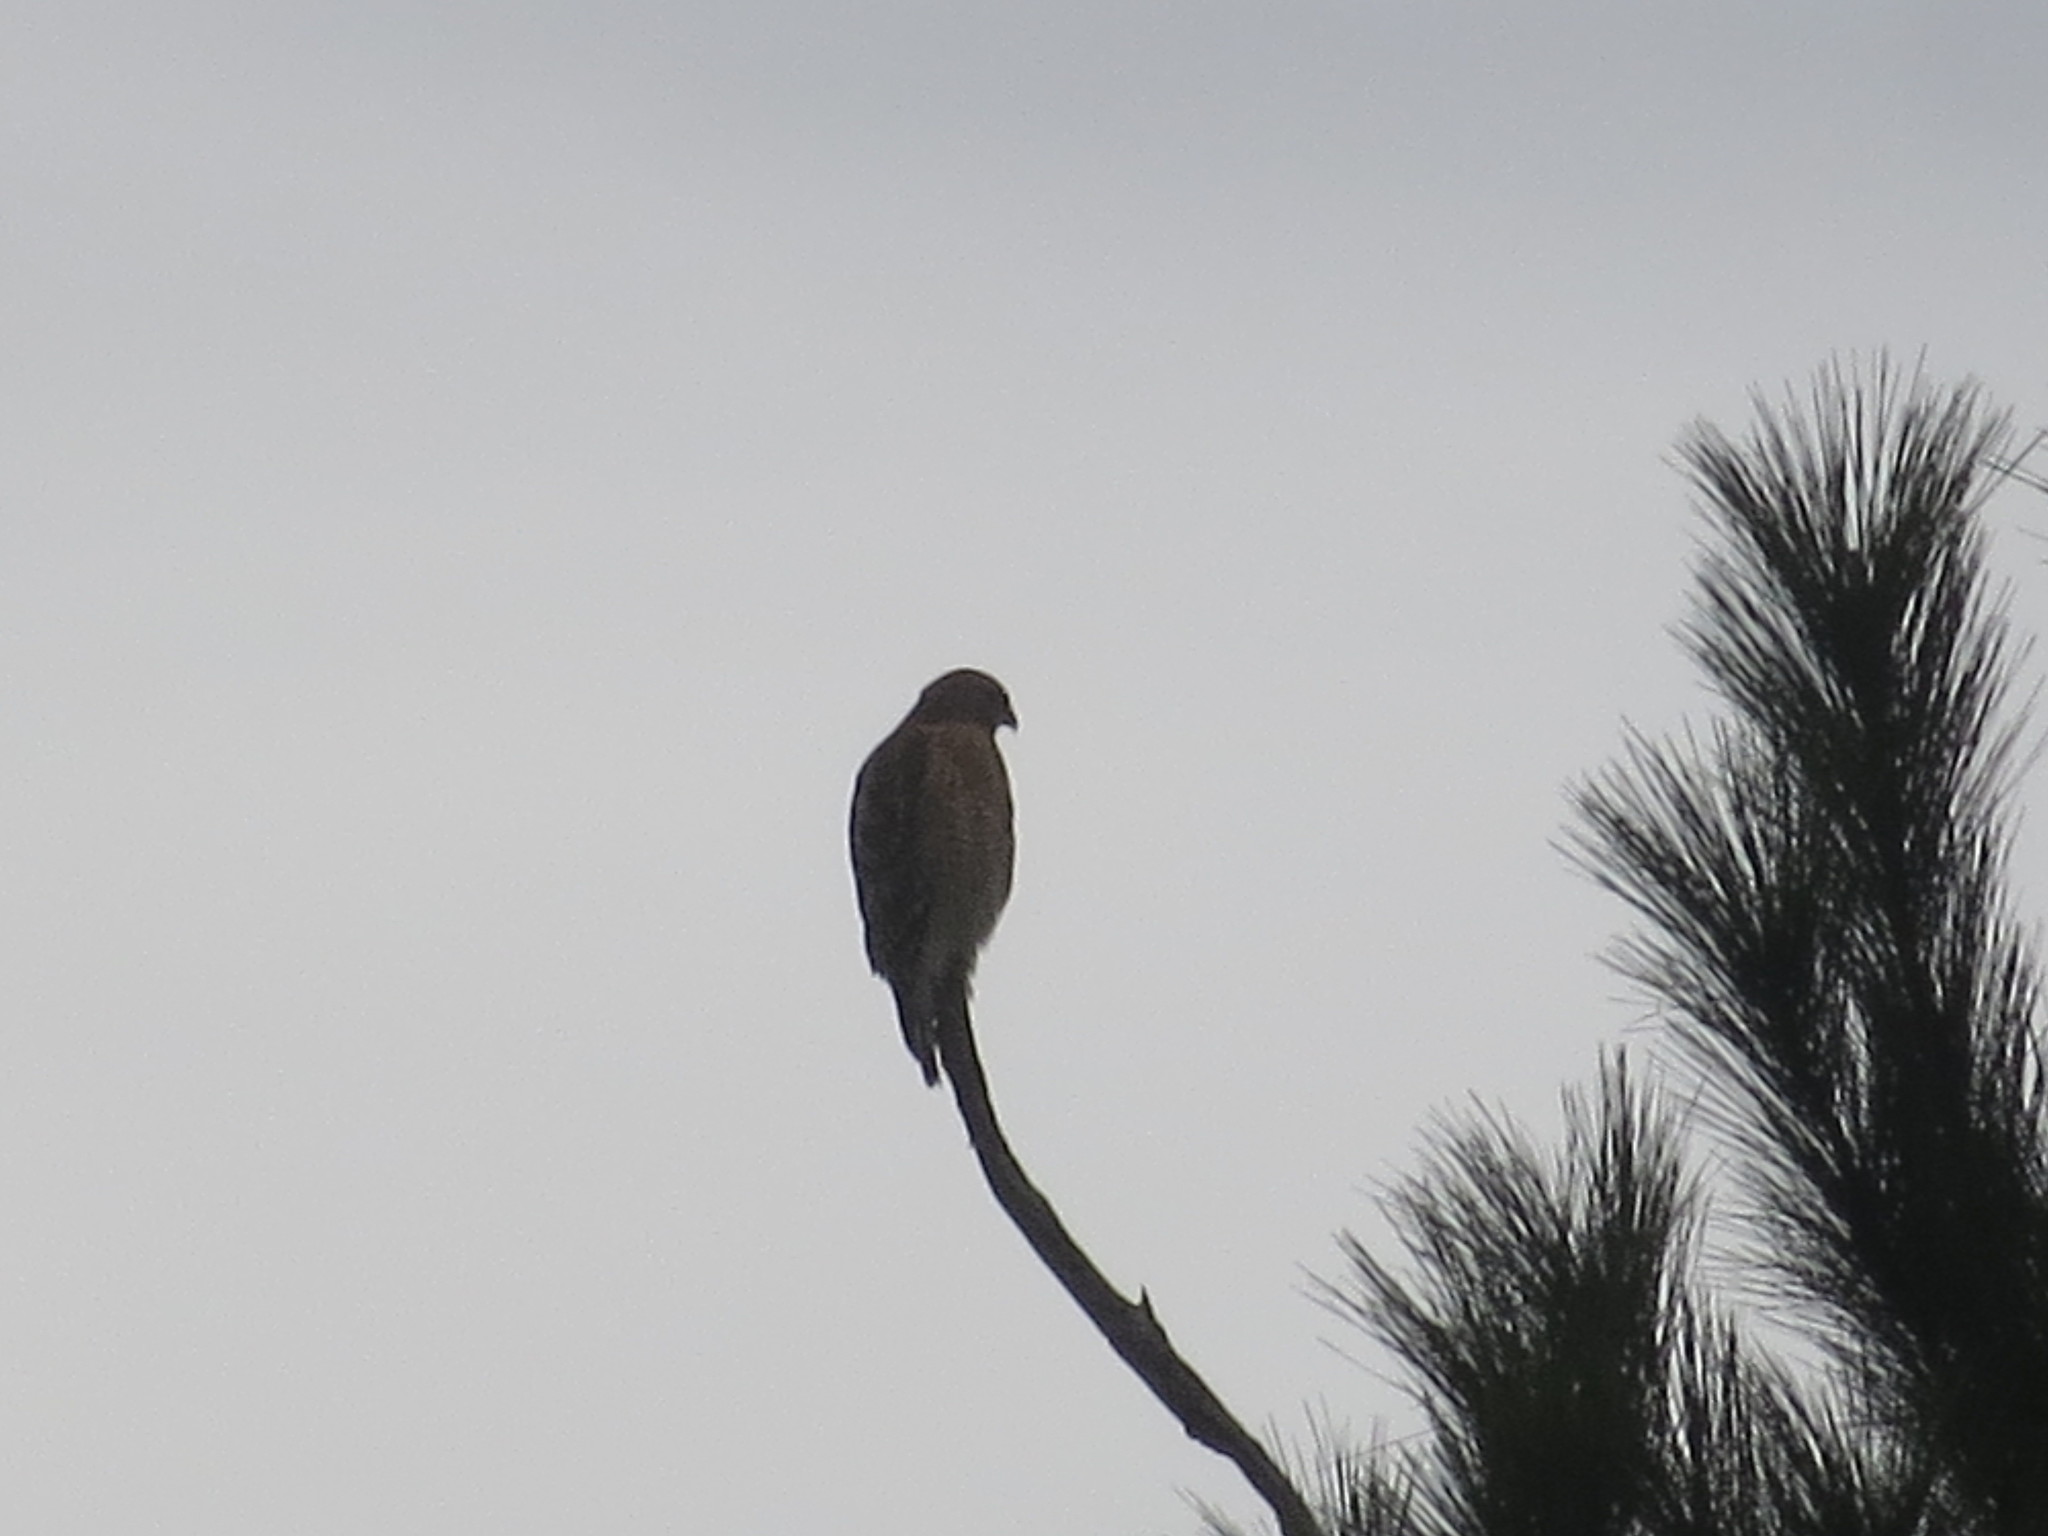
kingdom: Animalia
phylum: Chordata
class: Aves
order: Accipitriformes
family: Accipitridae
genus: Buteo
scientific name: Buteo lineatus
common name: Red-shouldered hawk
